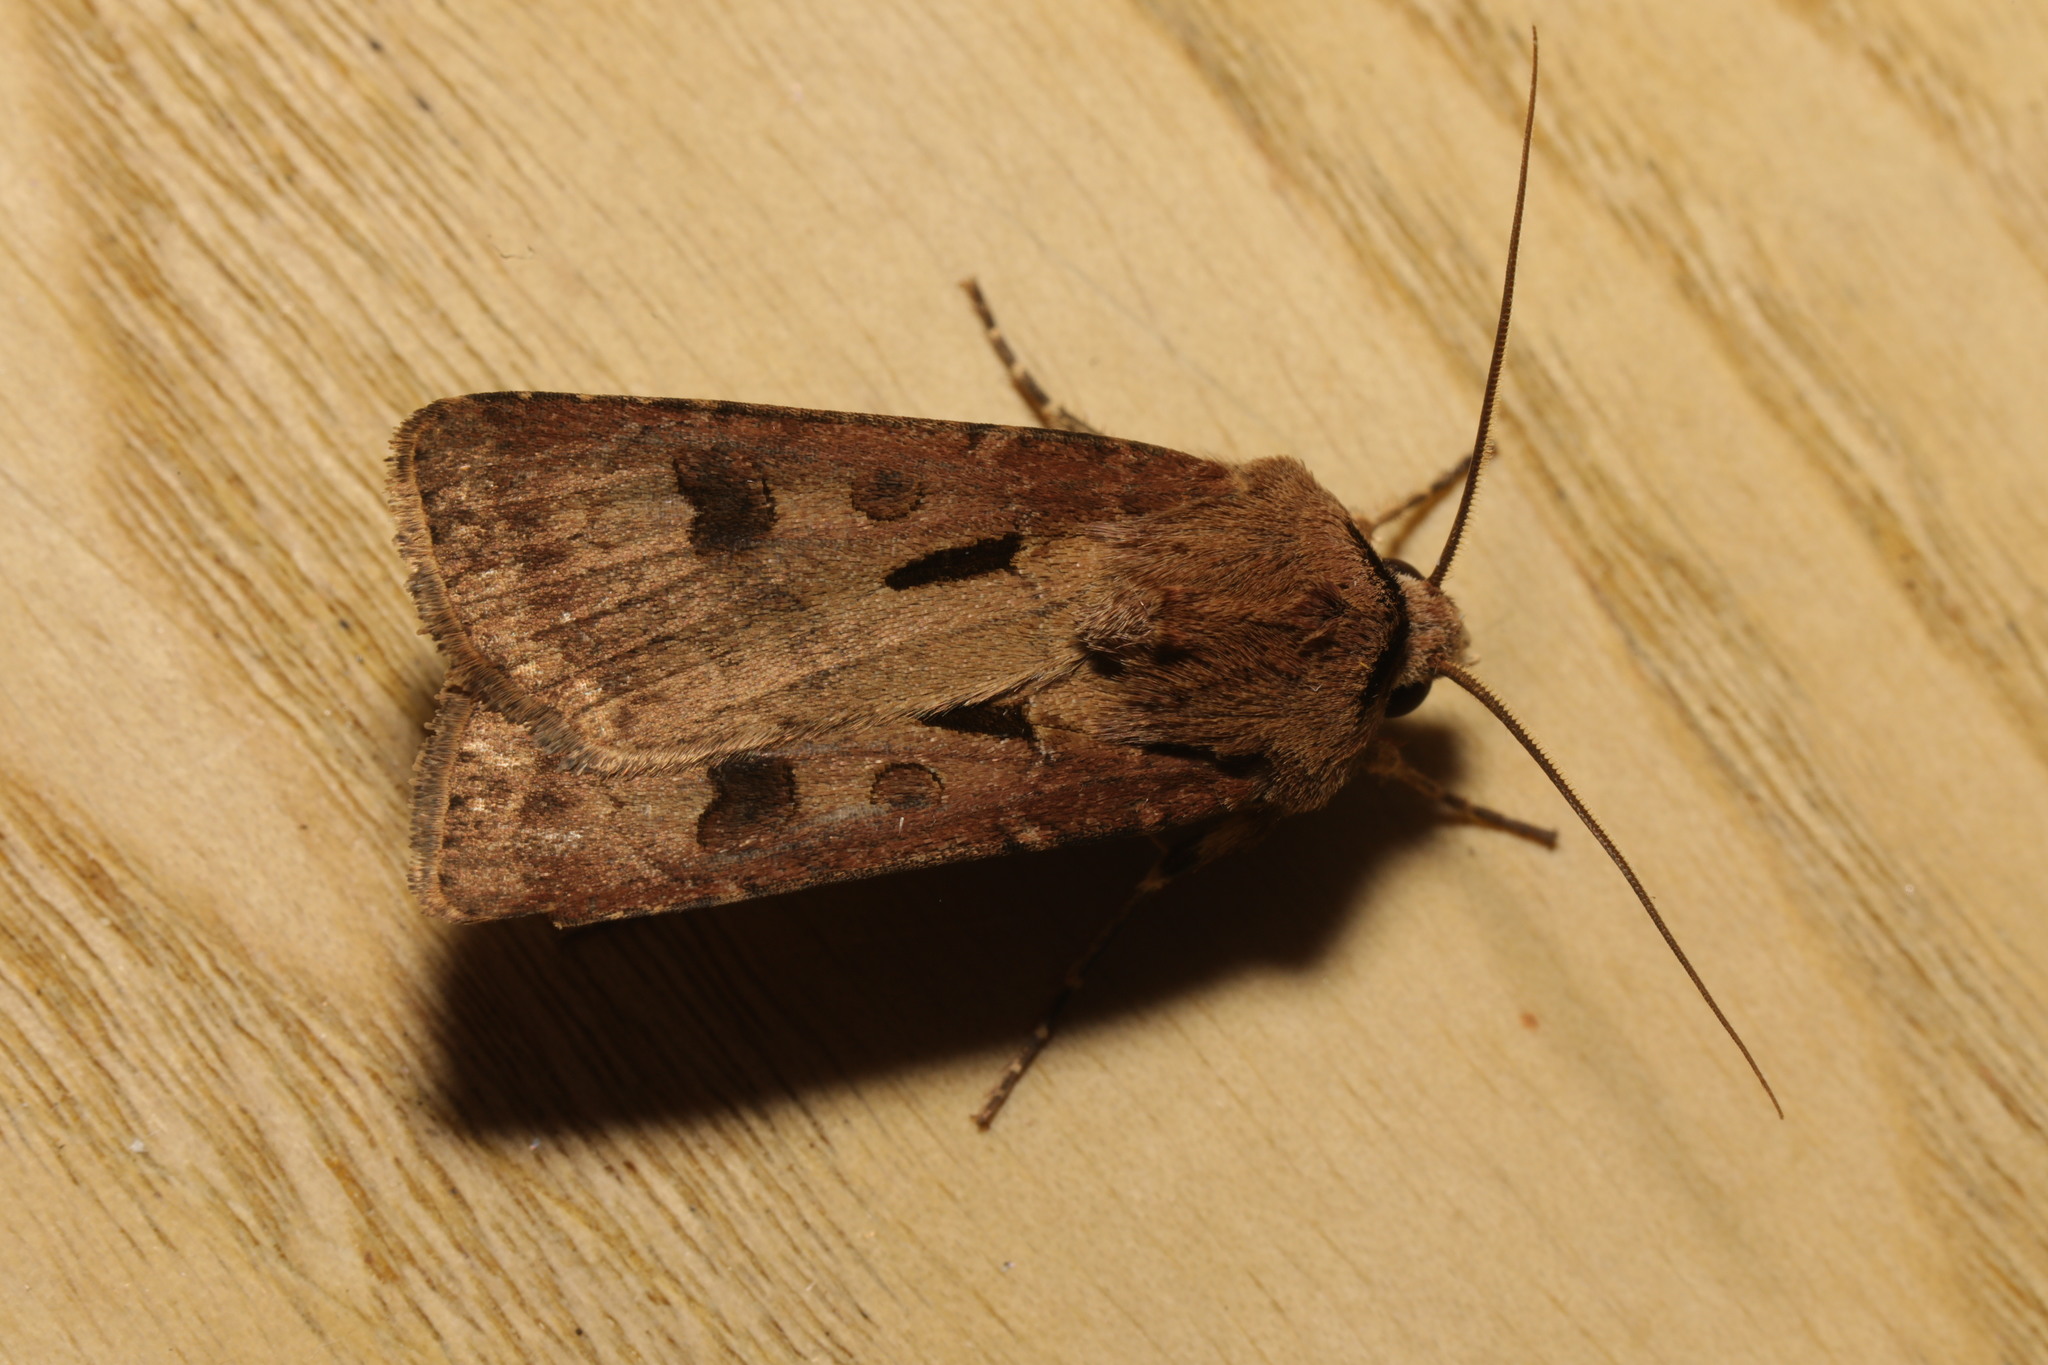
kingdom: Animalia
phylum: Arthropoda
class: Insecta
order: Lepidoptera
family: Noctuidae
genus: Agrotis
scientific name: Agrotis exclamationis
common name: Heart and dart
